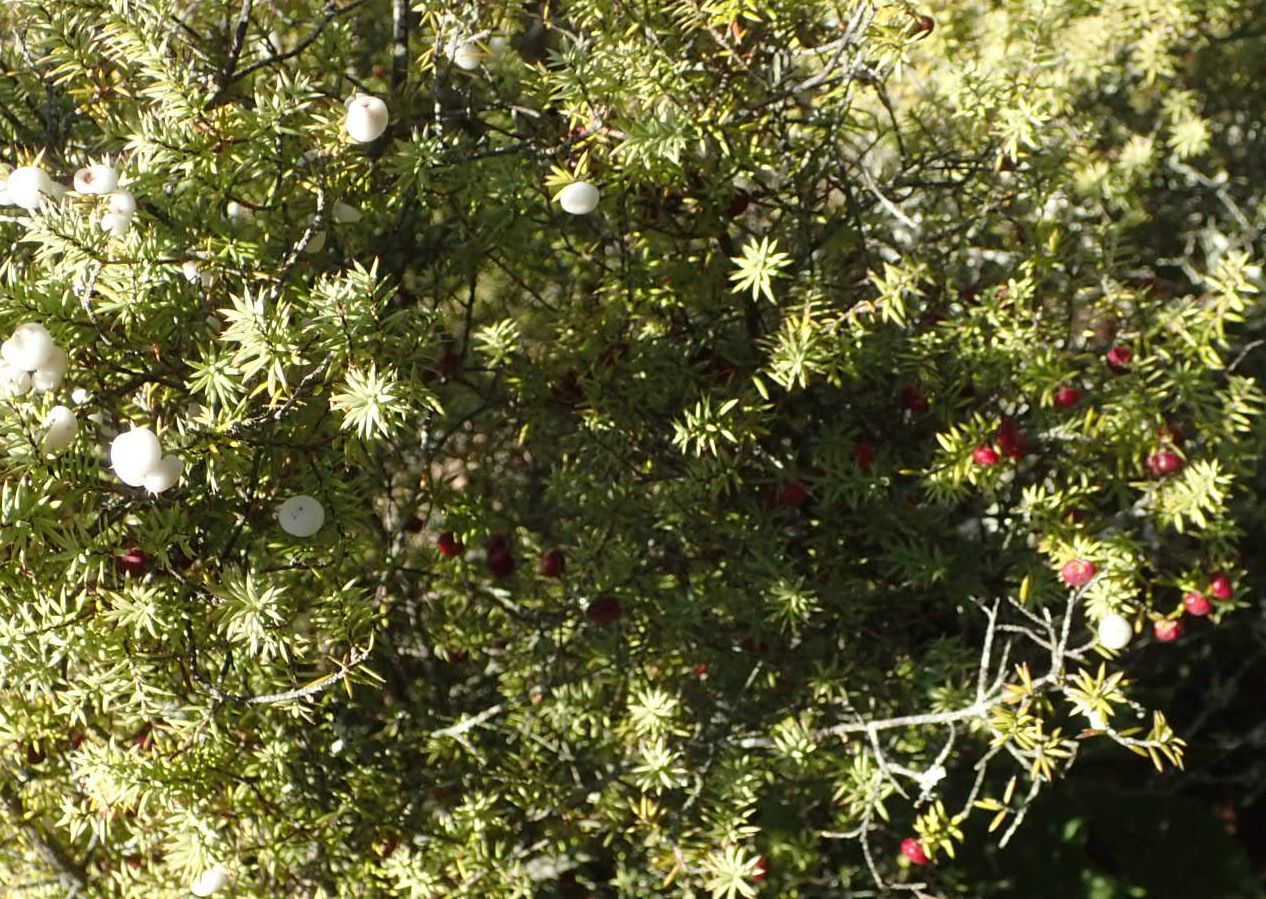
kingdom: Plantae
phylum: Tracheophyta
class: Magnoliopsida
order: Ericales
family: Ericaceae
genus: Leptecophylla
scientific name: Leptecophylla juniperina
